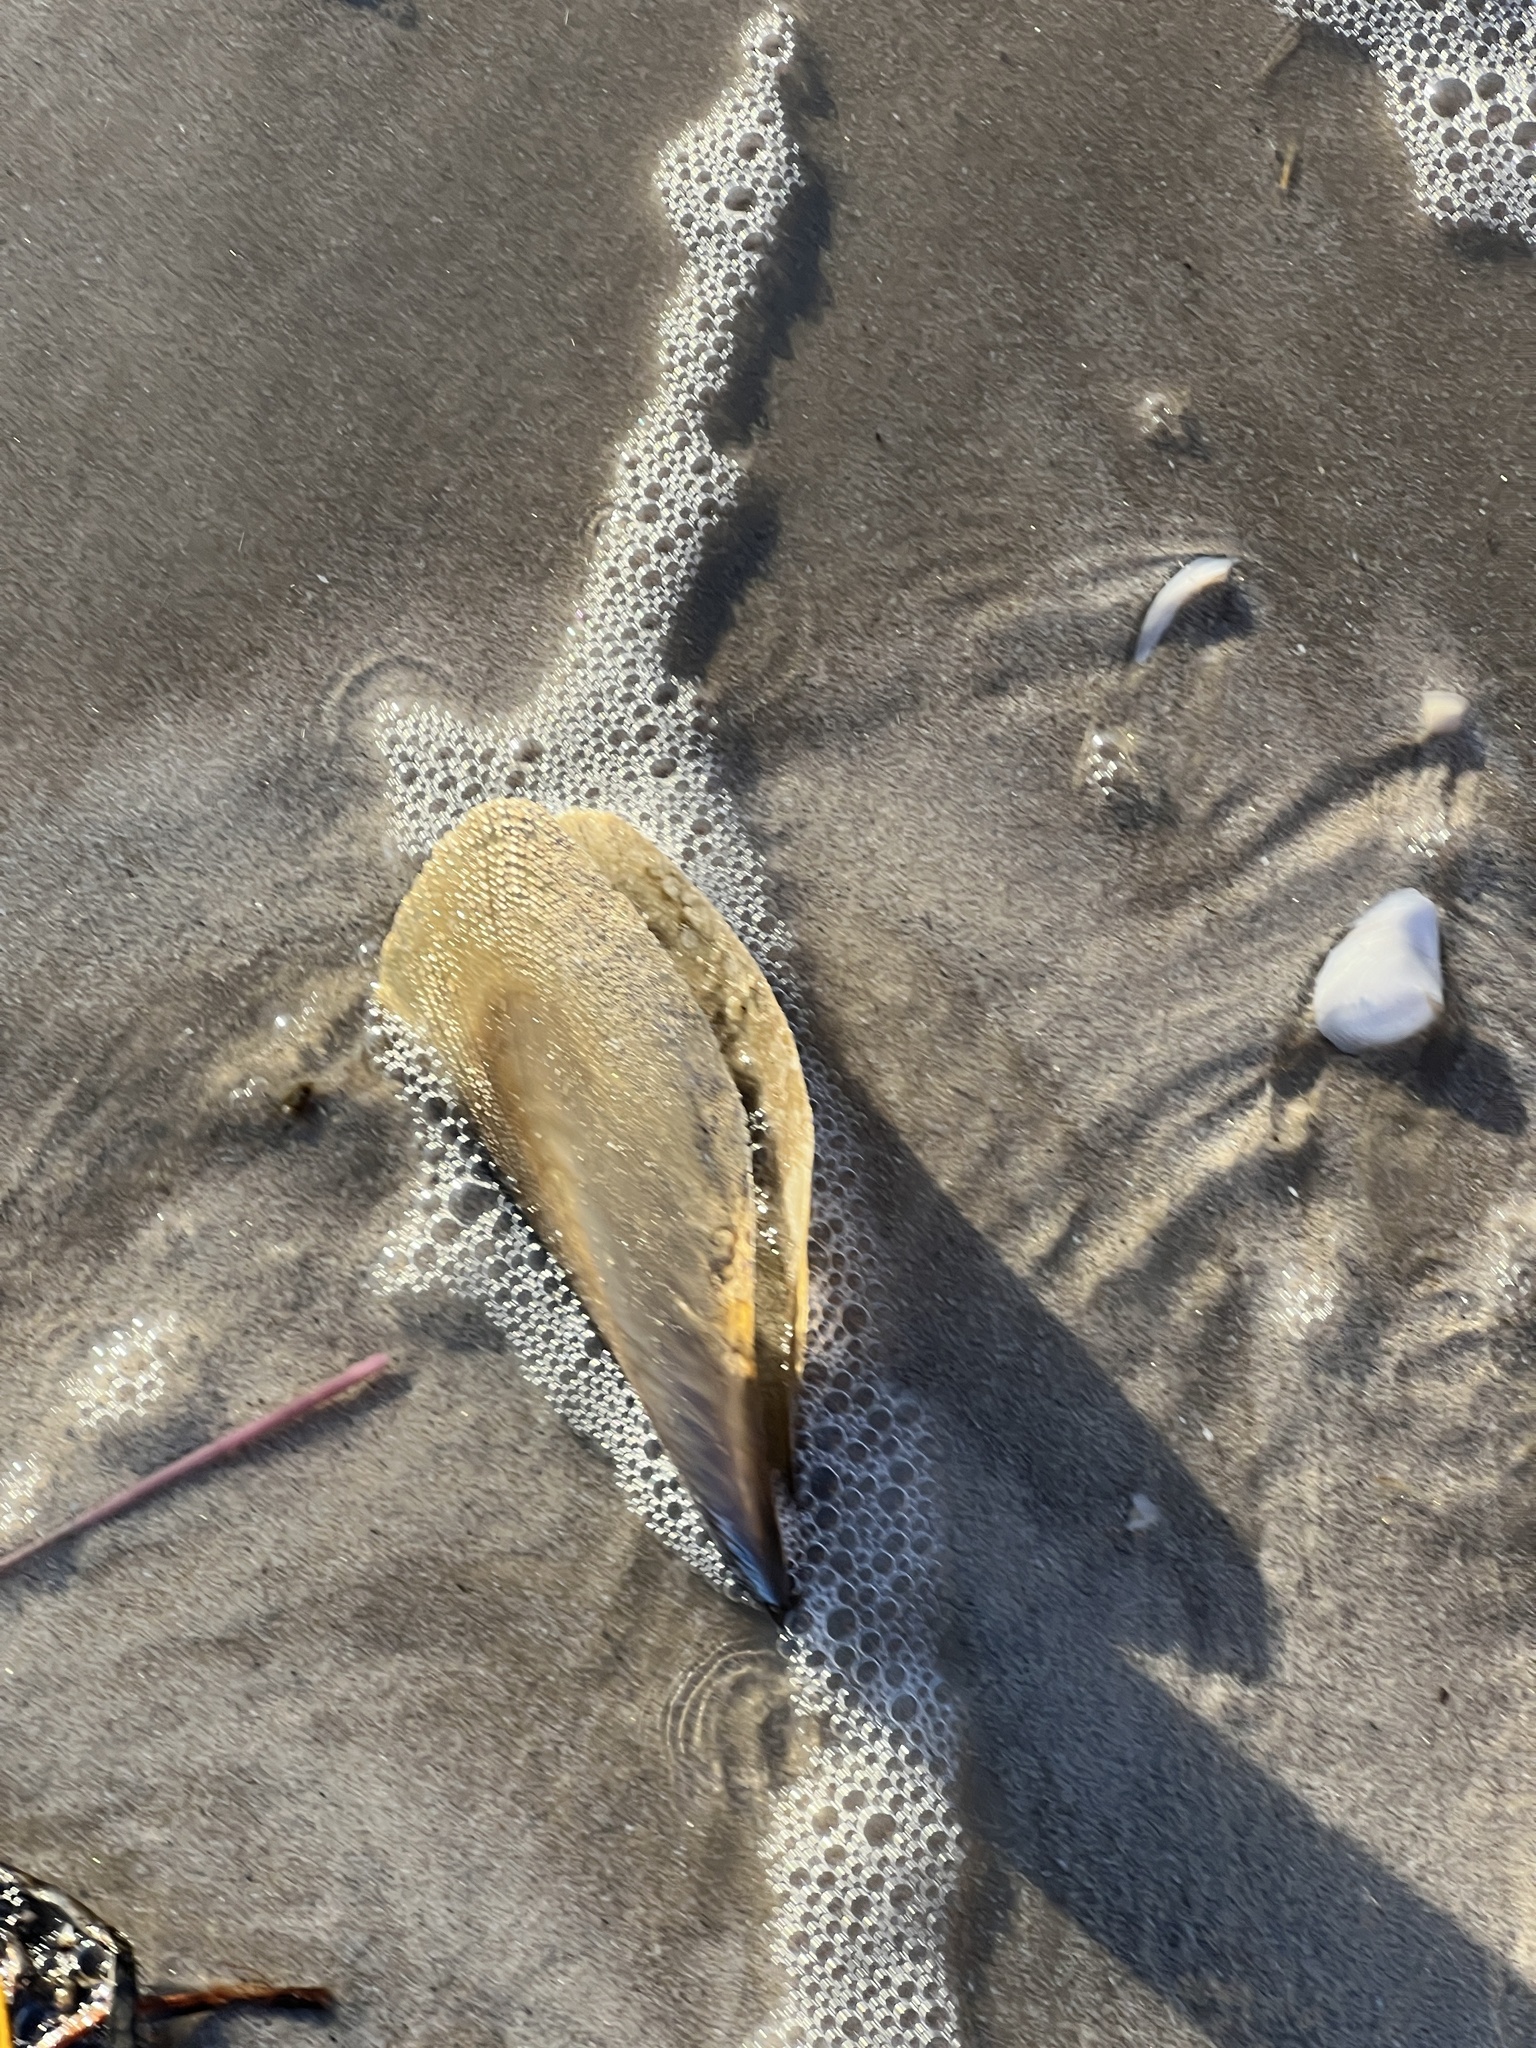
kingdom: Animalia
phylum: Mollusca
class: Bivalvia
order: Ostreida
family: Pinnidae
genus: Atrina
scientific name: Atrina serrata
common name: Saw-toothed penshell
